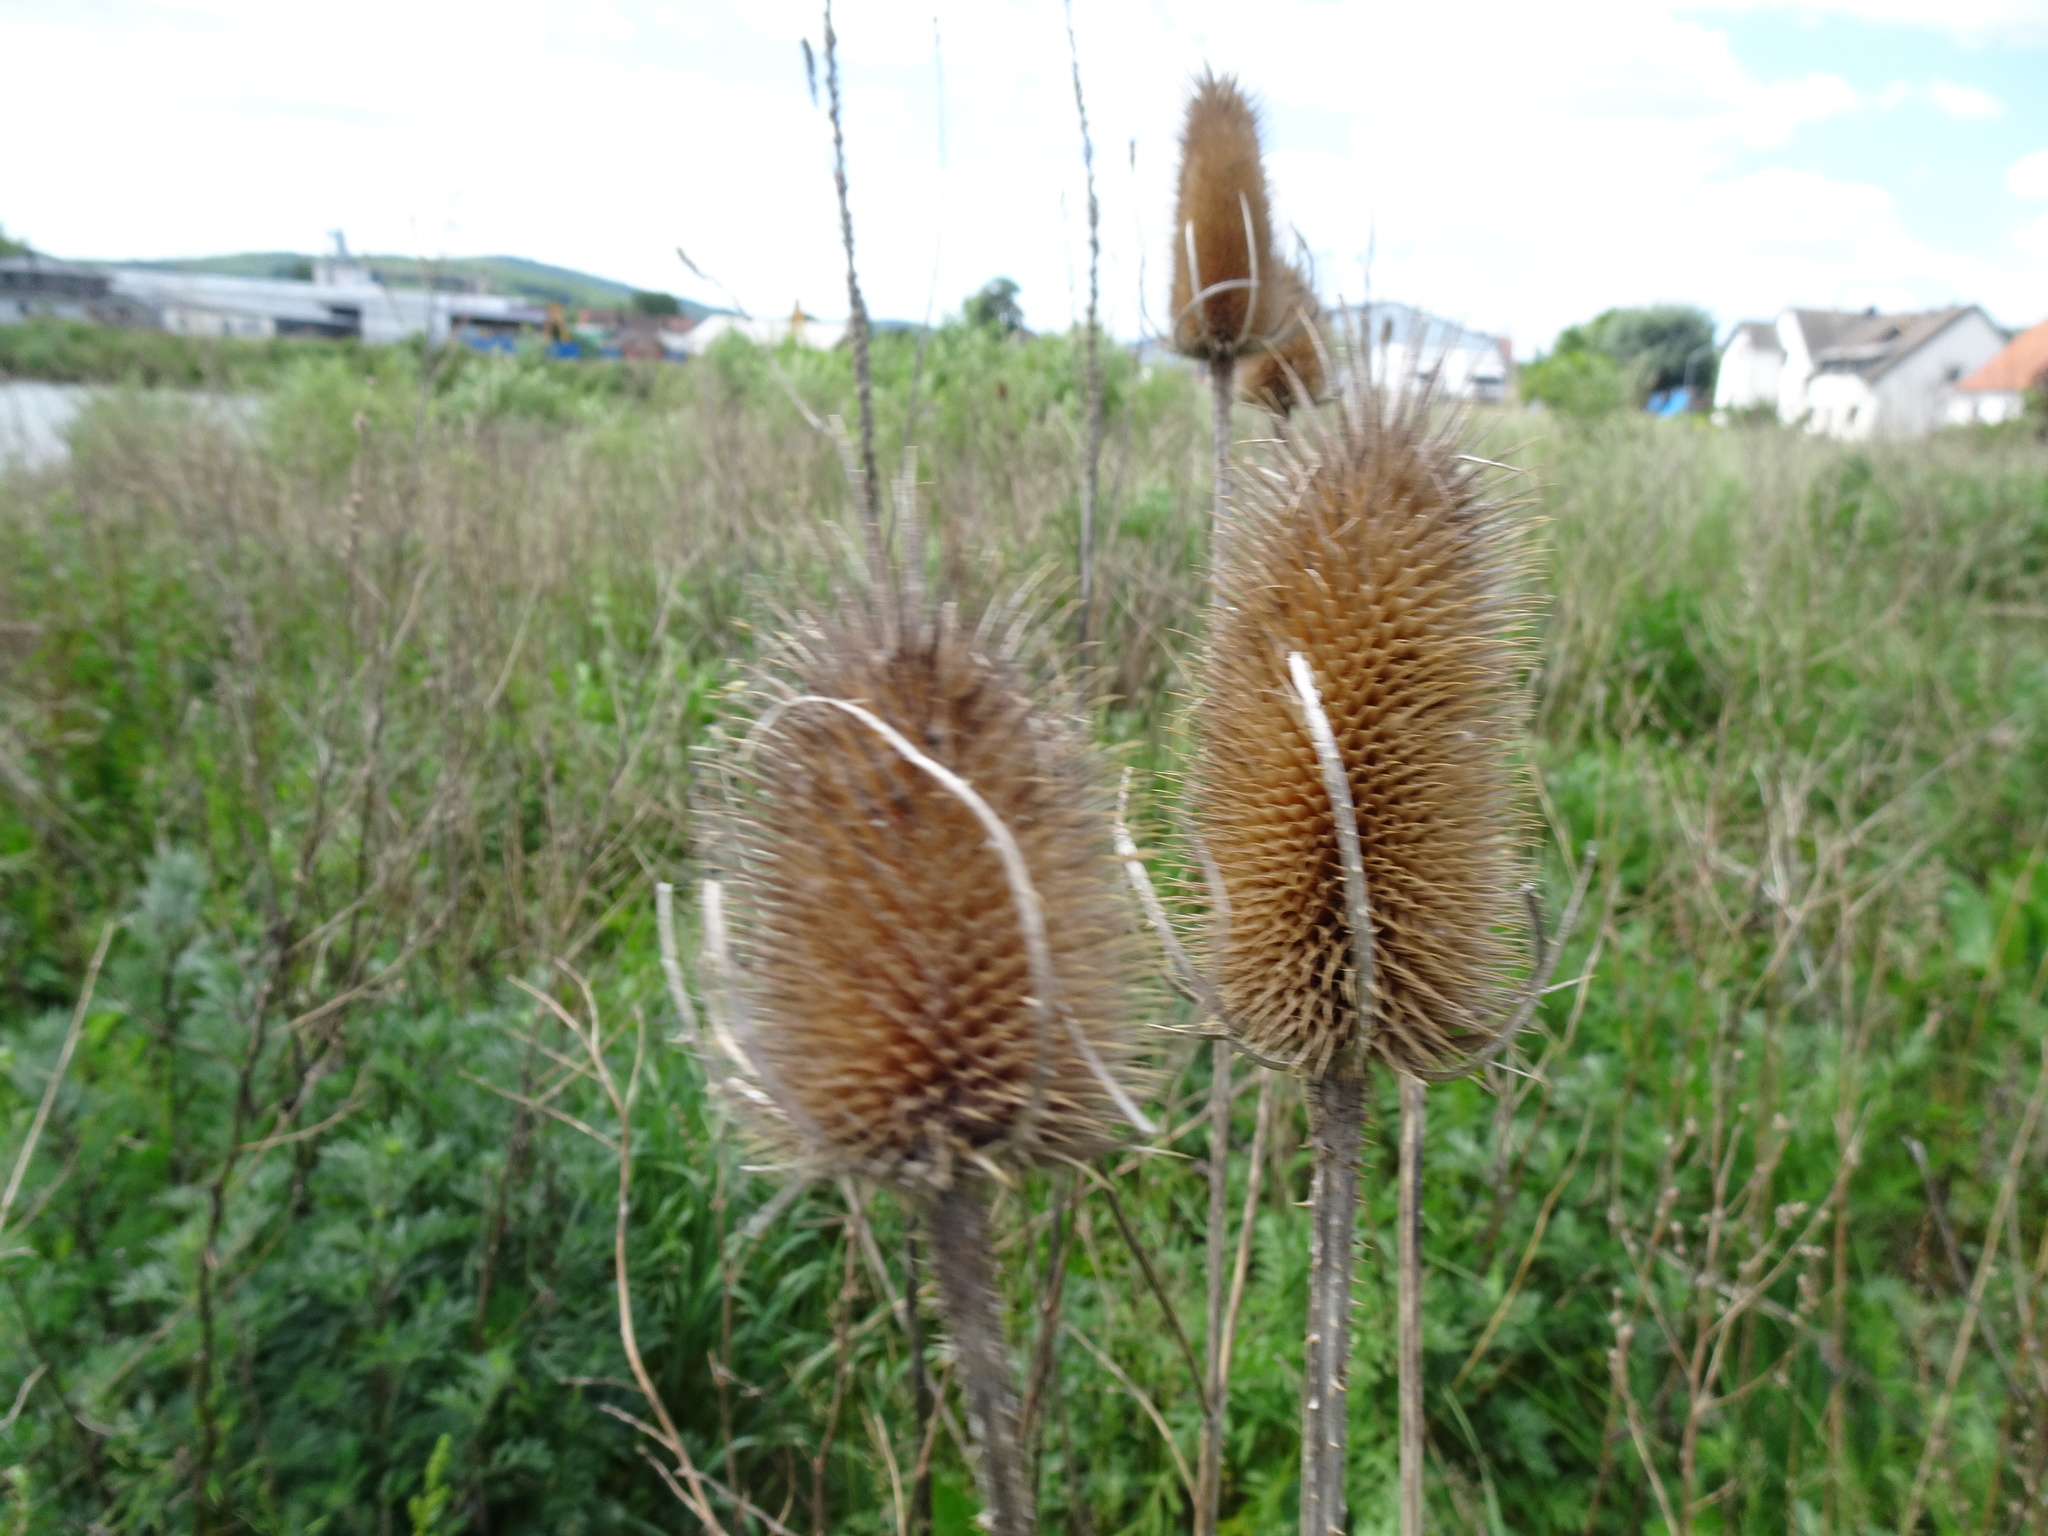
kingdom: Plantae
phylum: Tracheophyta
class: Magnoliopsida
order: Dipsacales
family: Caprifoliaceae
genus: Dipsacus
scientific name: Dipsacus fullonum
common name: Teasel
